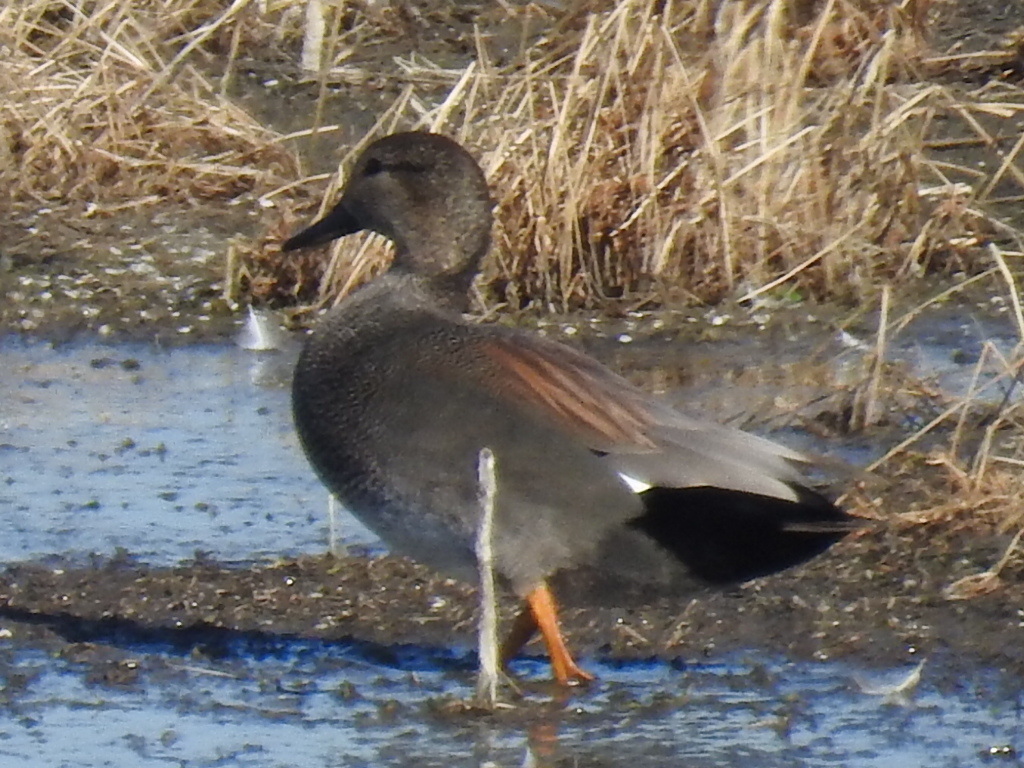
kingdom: Animalia
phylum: Chordata
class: Aves
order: Anseriformes
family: Anatidae
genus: Mareca
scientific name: Mareca strepera
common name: Gadwall
